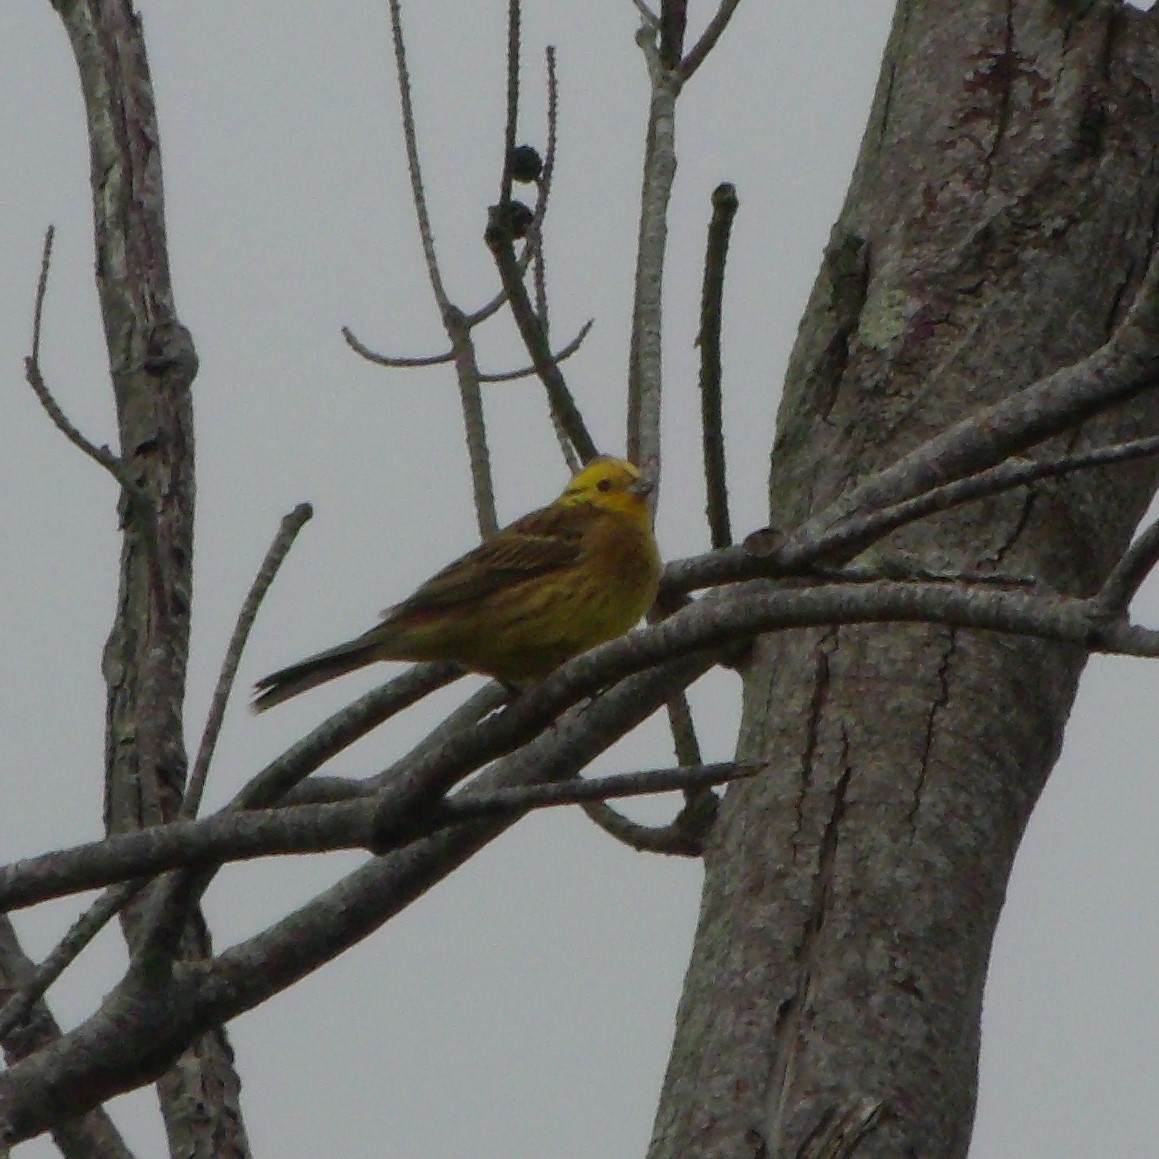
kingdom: Animalia
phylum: Chordata
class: Aves
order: Passeriformes
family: Emberizidae
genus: Emberiza
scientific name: Emberiza citrinella
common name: Yellowhammer
